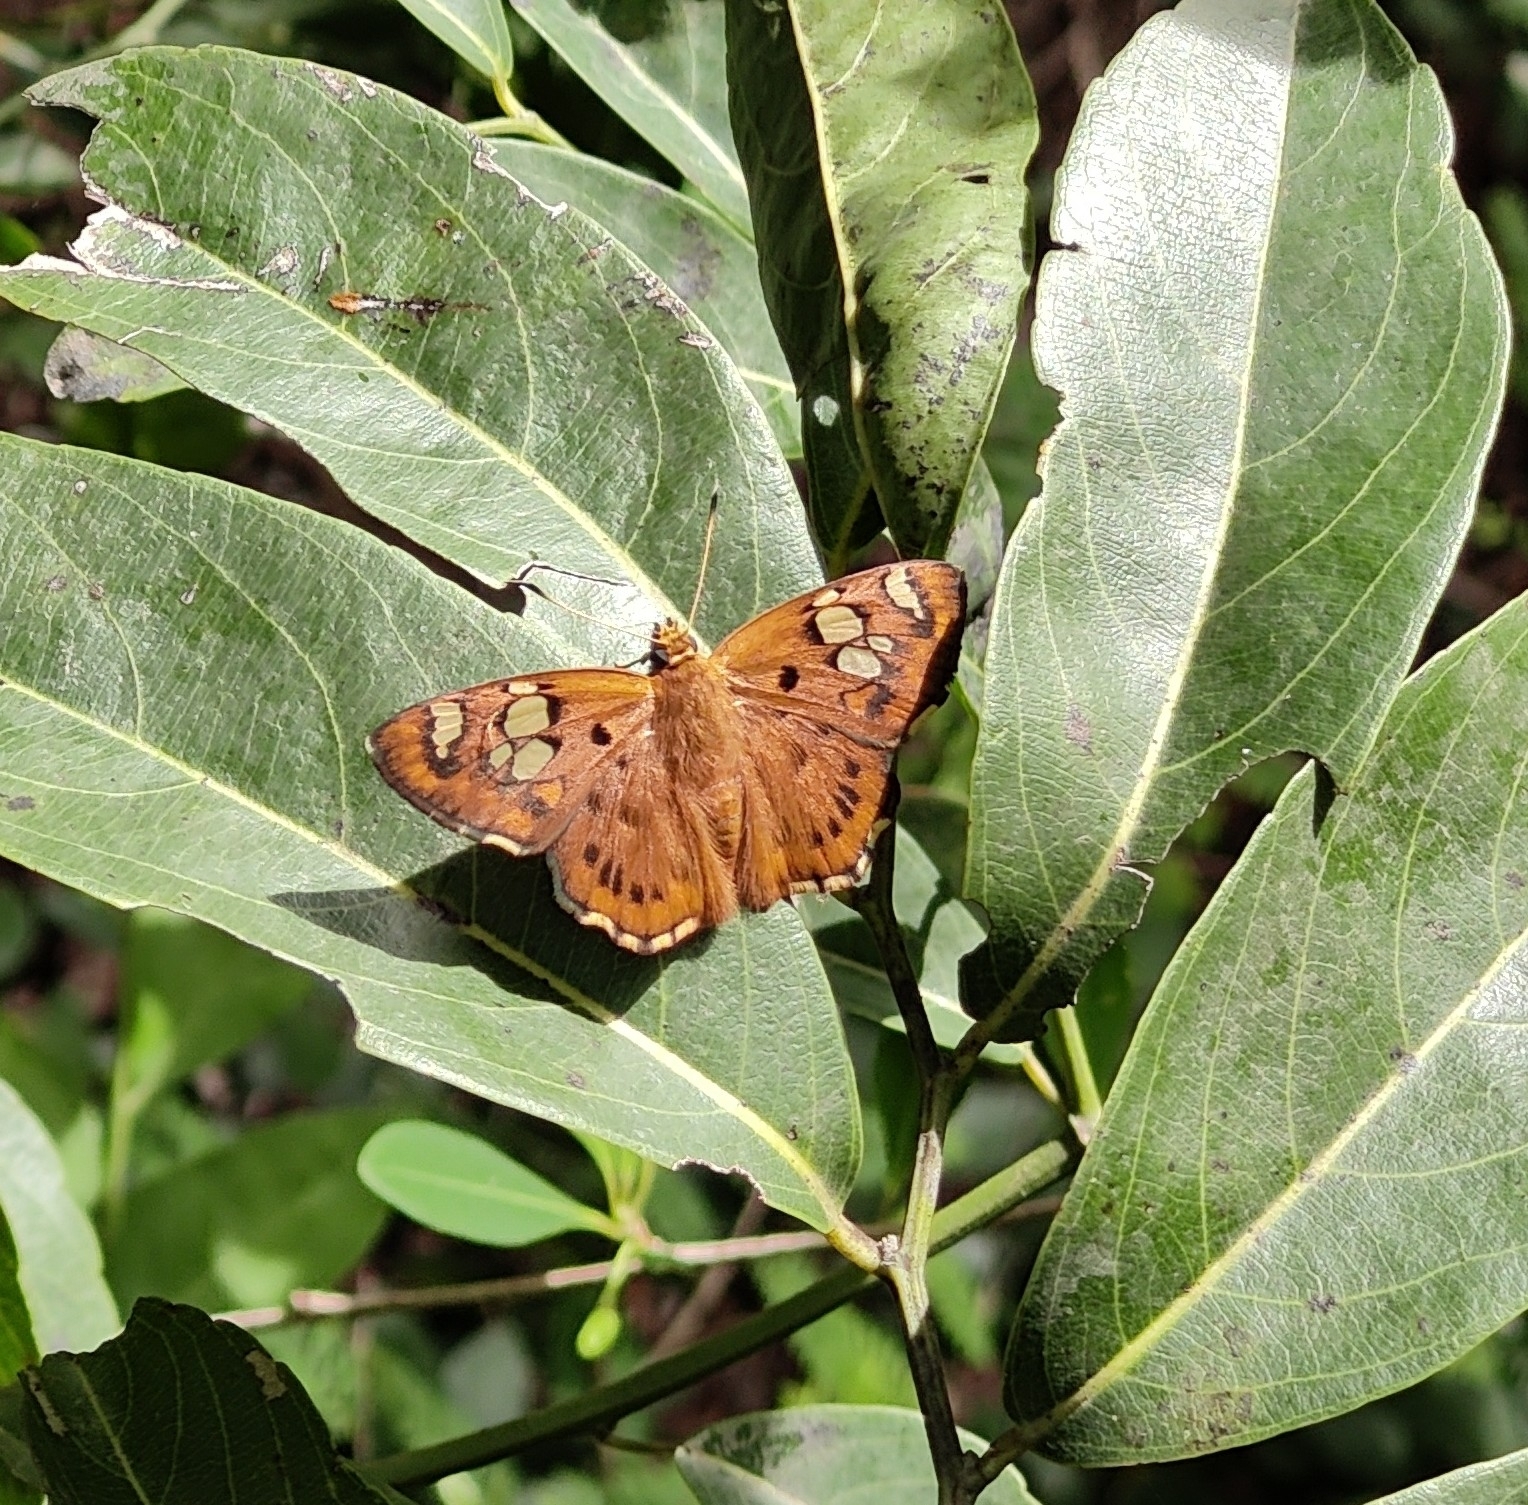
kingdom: Animalia
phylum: Arthropoda
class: Insecta
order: Lepidoptera
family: Hesperiidae
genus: Coladenia
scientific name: Coladenia
